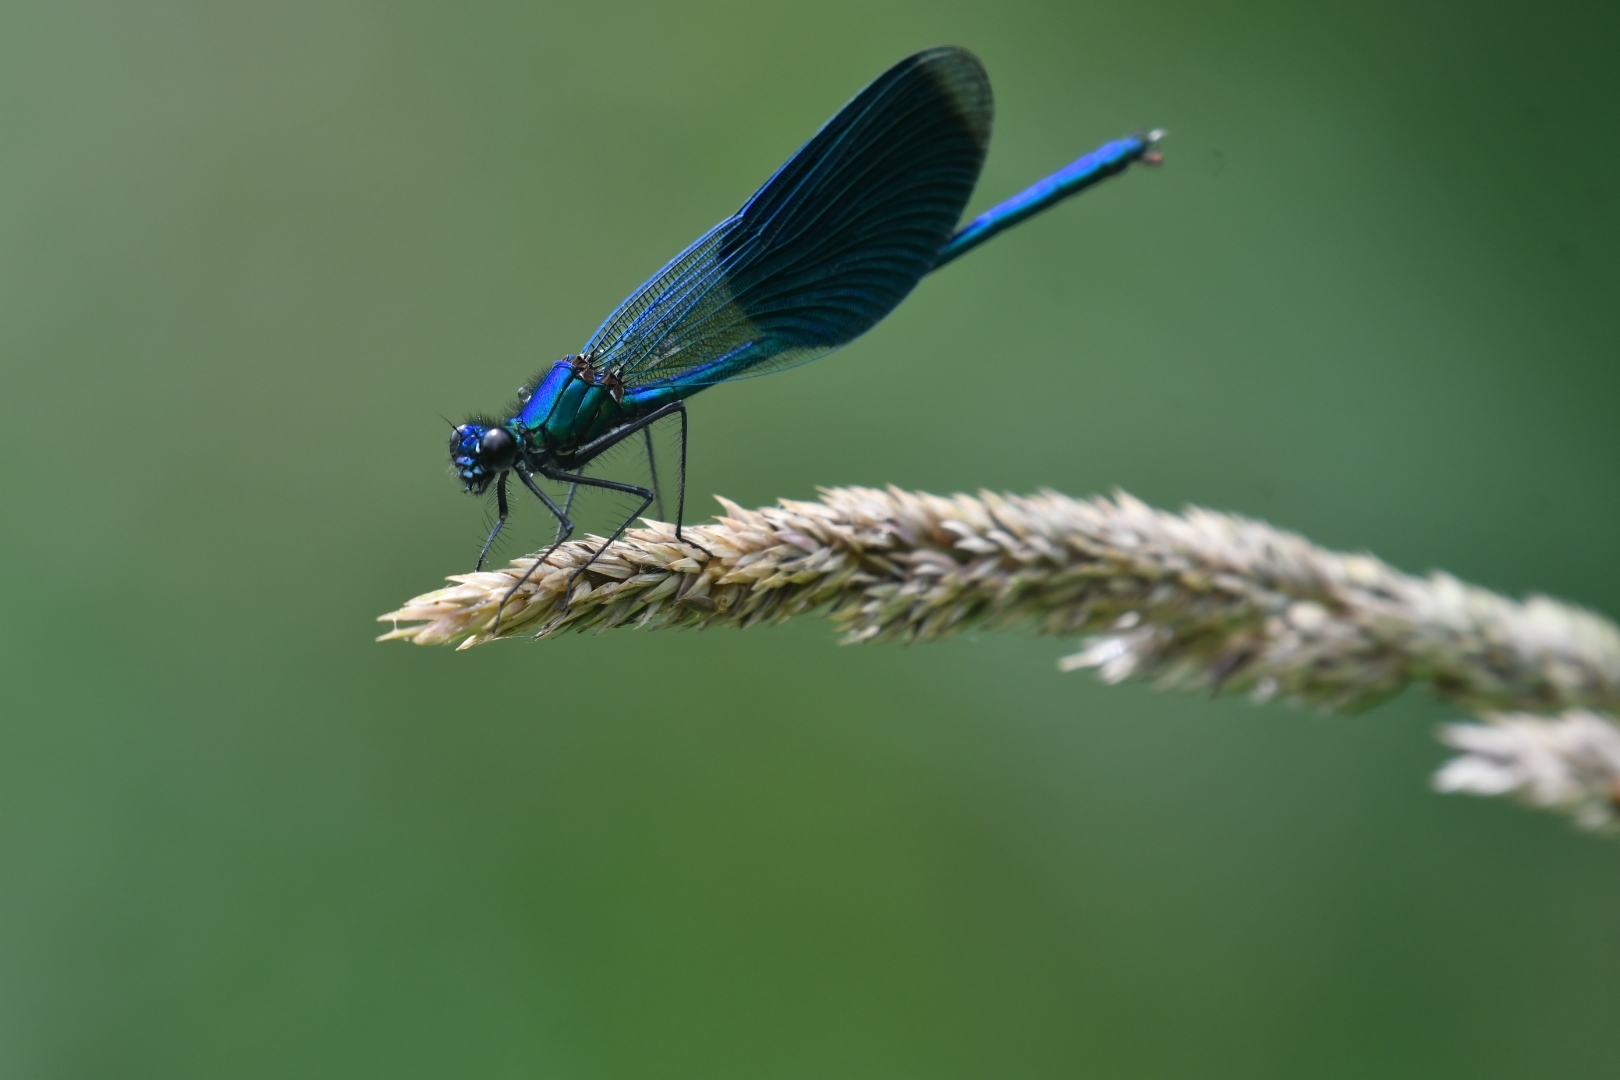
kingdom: Animalia
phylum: Arthropoda
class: Insecta
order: Odonata
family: Calopterygidae
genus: Calopteryx
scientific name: Calopteryx splendens
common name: Banded demoiselle
